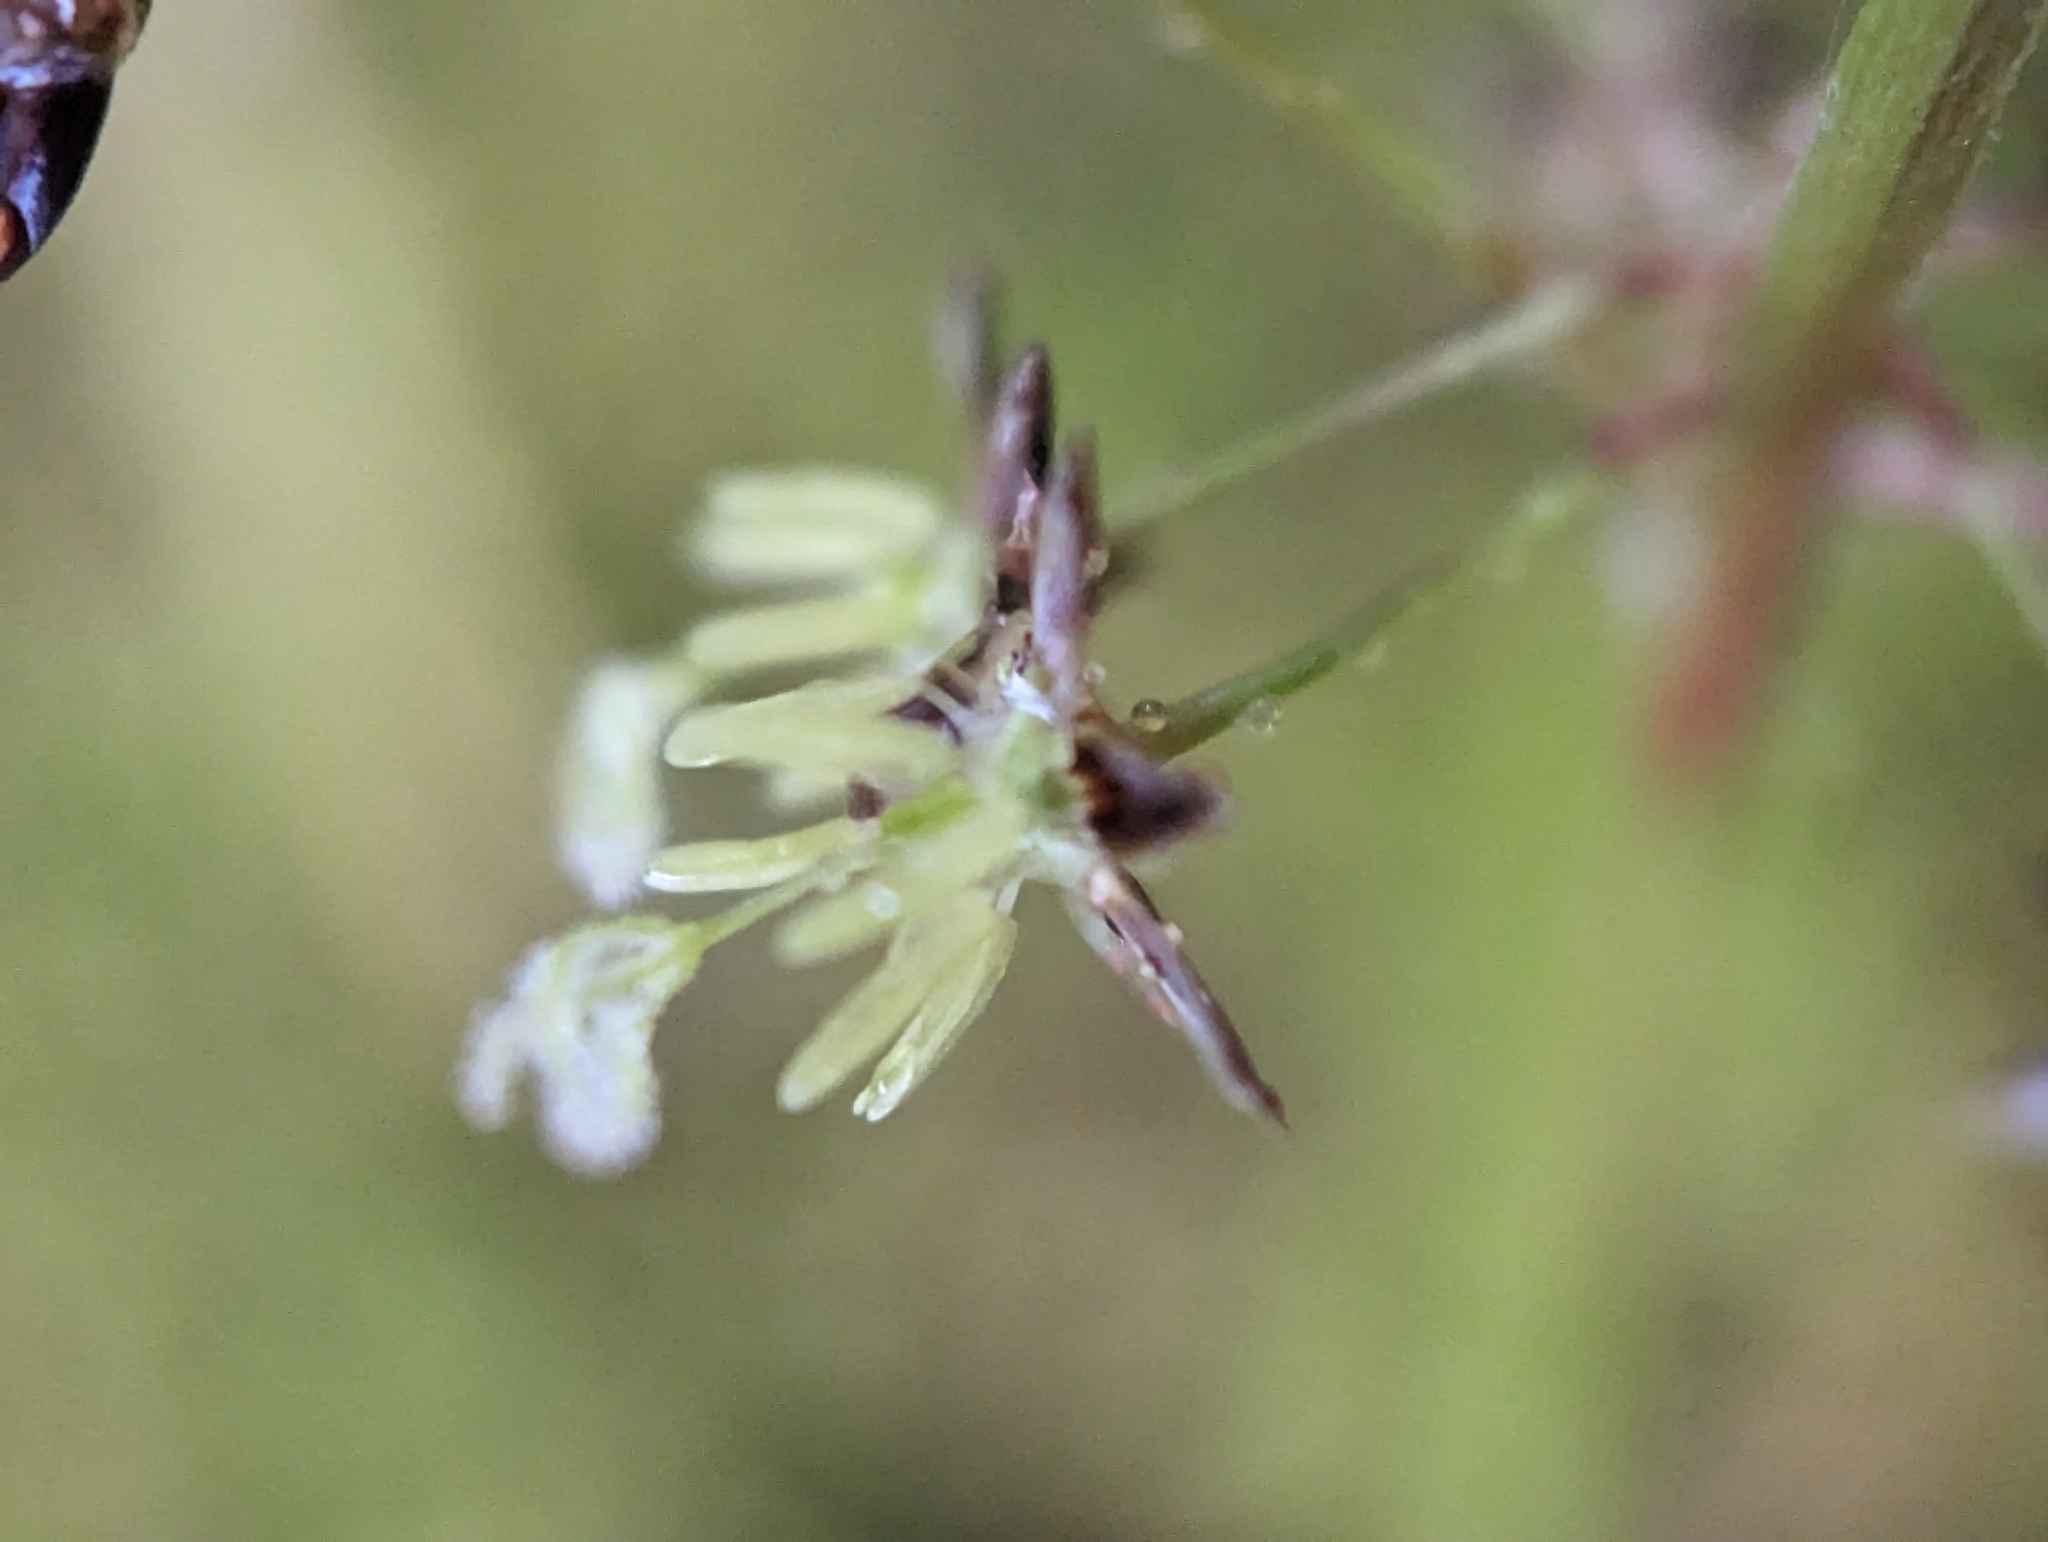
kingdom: Plantae
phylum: Tracheophyta
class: Liliopsida
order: Poales
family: Juncaceae
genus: Luzula
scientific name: Luzula pilosa
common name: Hairy wood-rush
